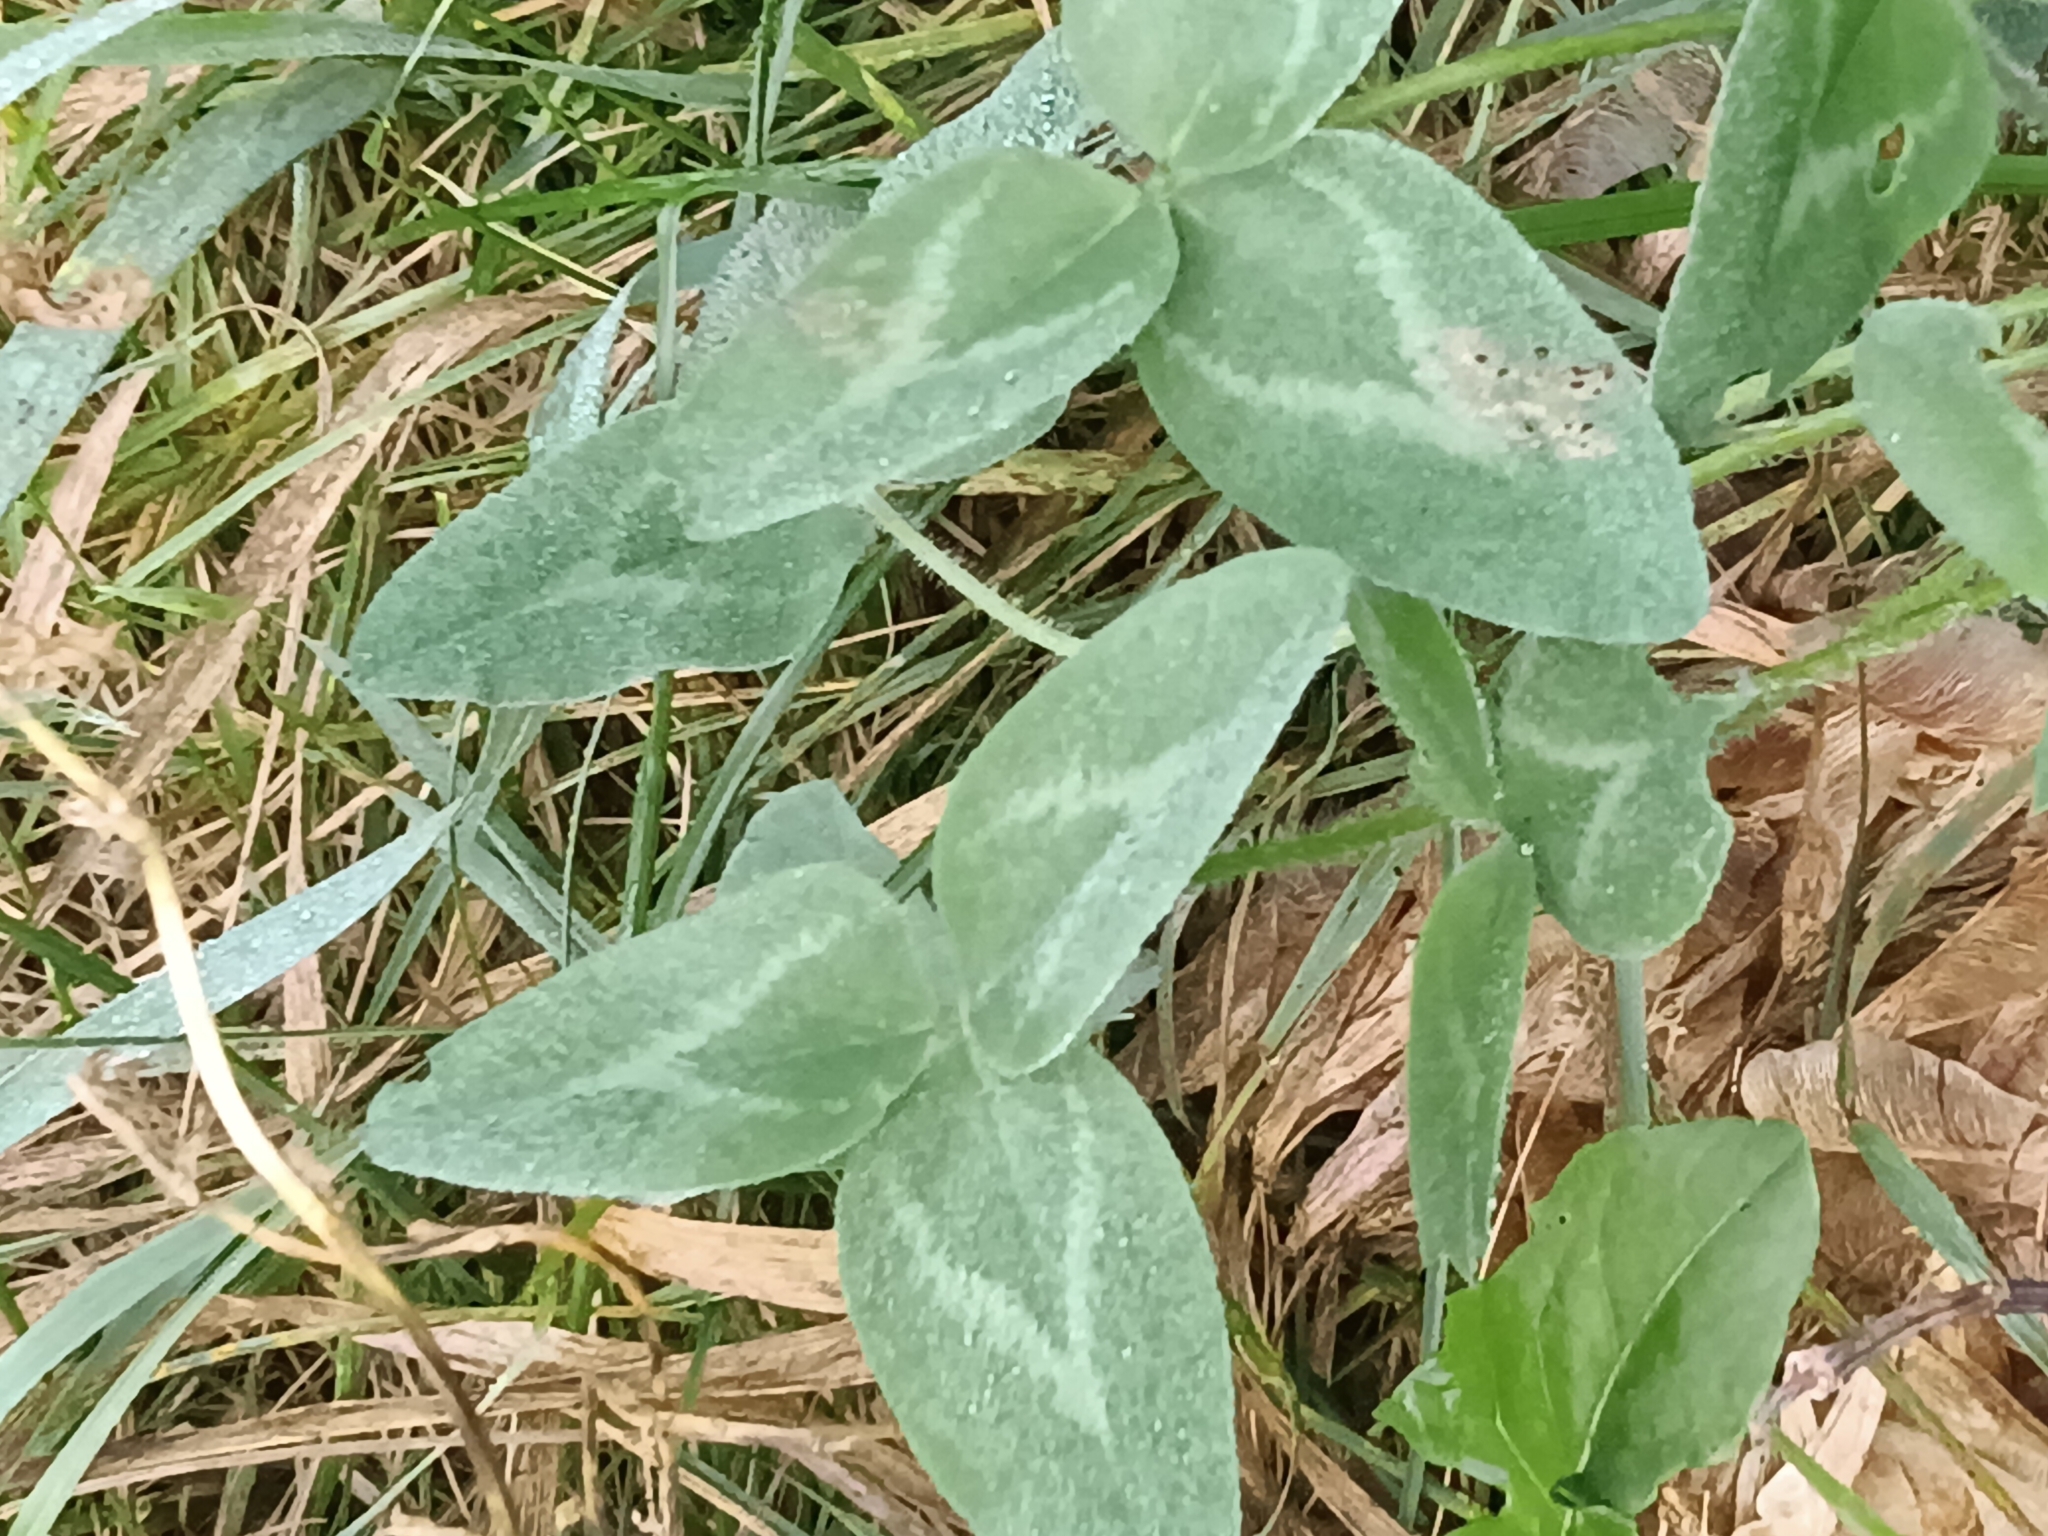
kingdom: Plantae
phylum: Tracheophyta
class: Magnoliopsida
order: Fabales
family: Fabaceae
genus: Trifolium
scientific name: Trifolium pratense
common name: Red clover
